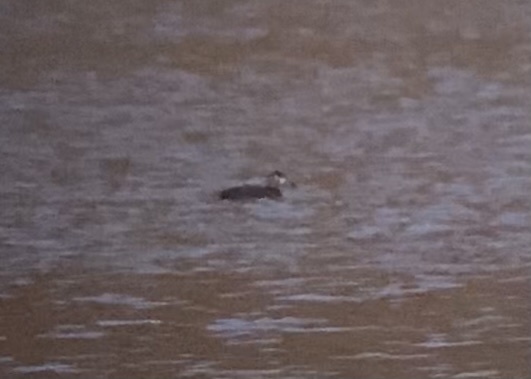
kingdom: Animalia
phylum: Chordata
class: Aves
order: Anseriformes
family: Anatidae
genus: Melanitta
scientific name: Melanitta perspicillata
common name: Surf scoter
